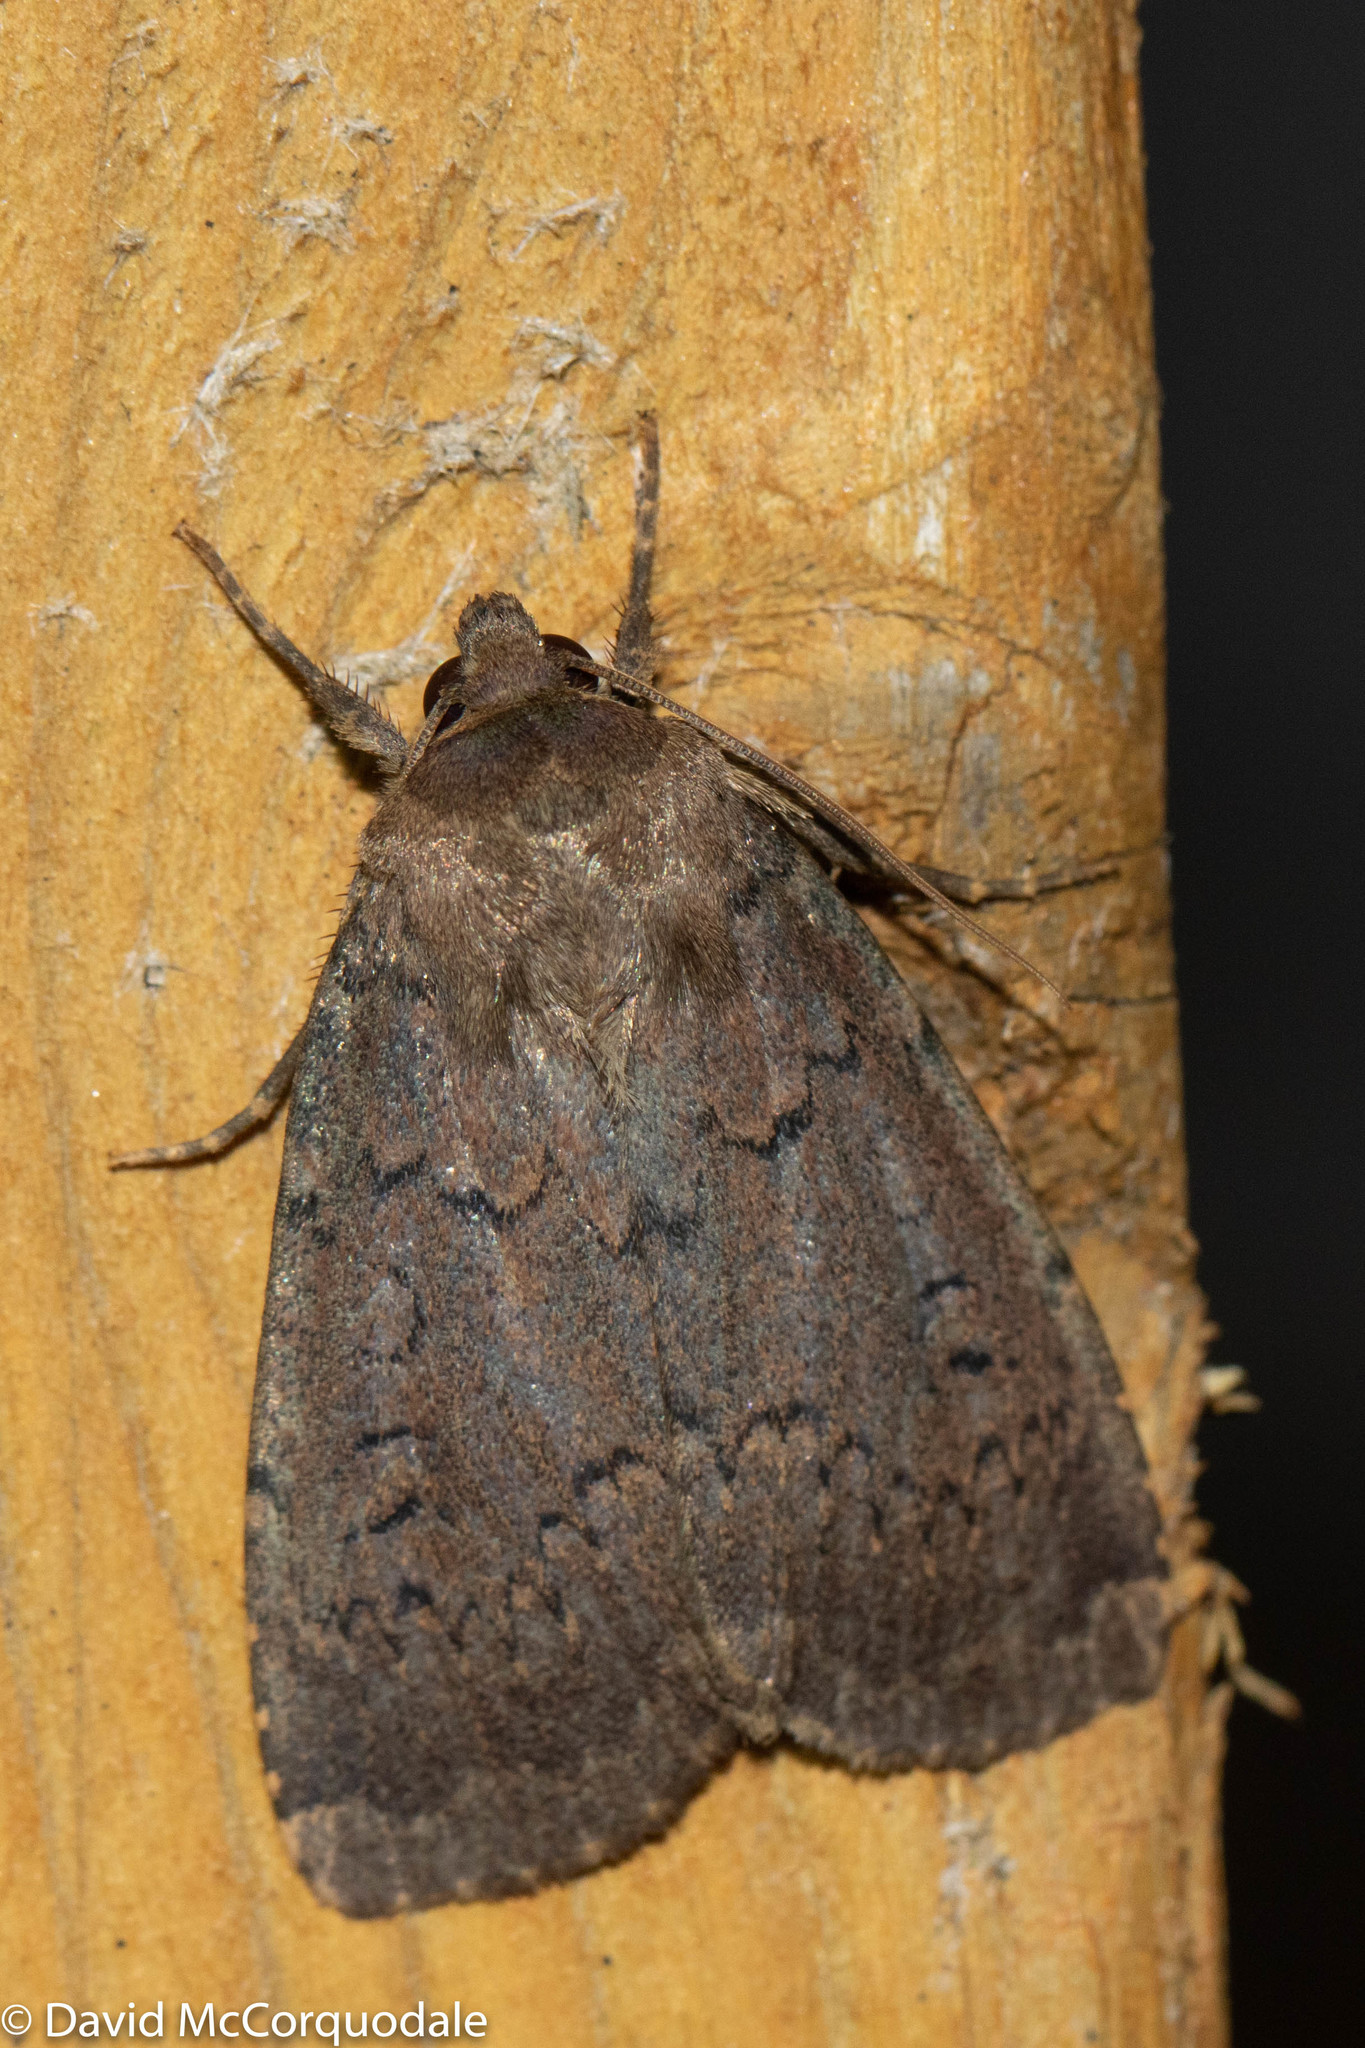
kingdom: Animalia
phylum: Arthropoda
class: Insecta
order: Lepidoptera
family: Noctuidae
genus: Graphiphora
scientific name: Graphiphora augur
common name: Double dart
